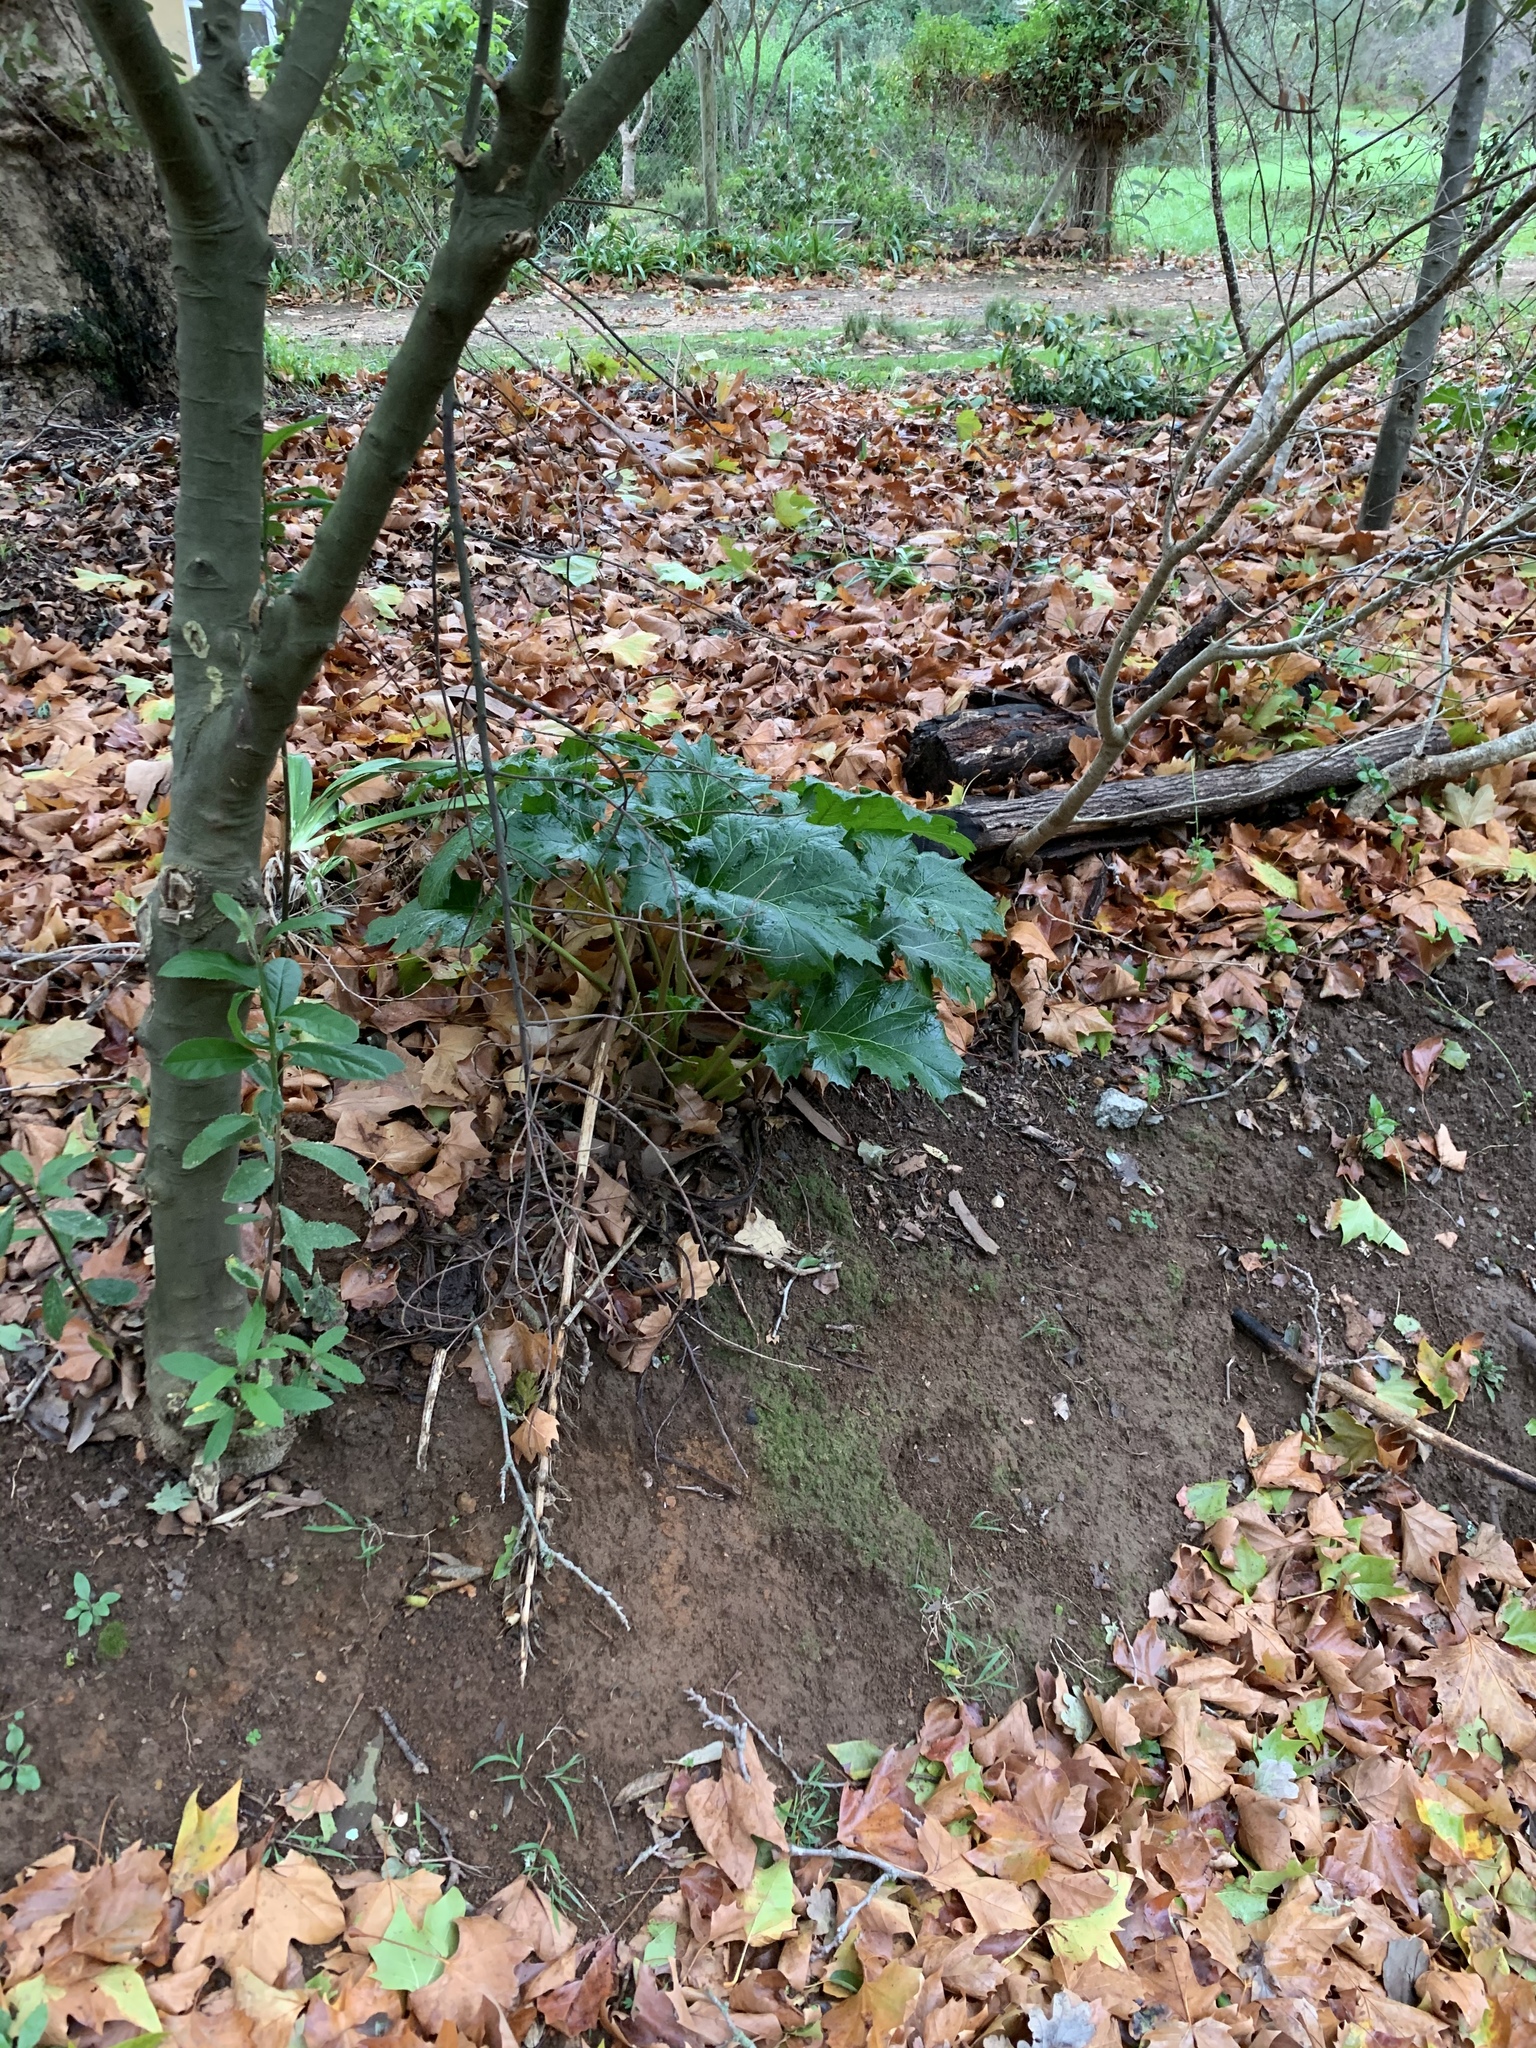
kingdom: Plantae
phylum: Tracheophyta
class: Magnoliopsida
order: Lamiales
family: Acanthaceae
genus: Acanthus
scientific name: Acanthus mollis
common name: Bear's-breech
